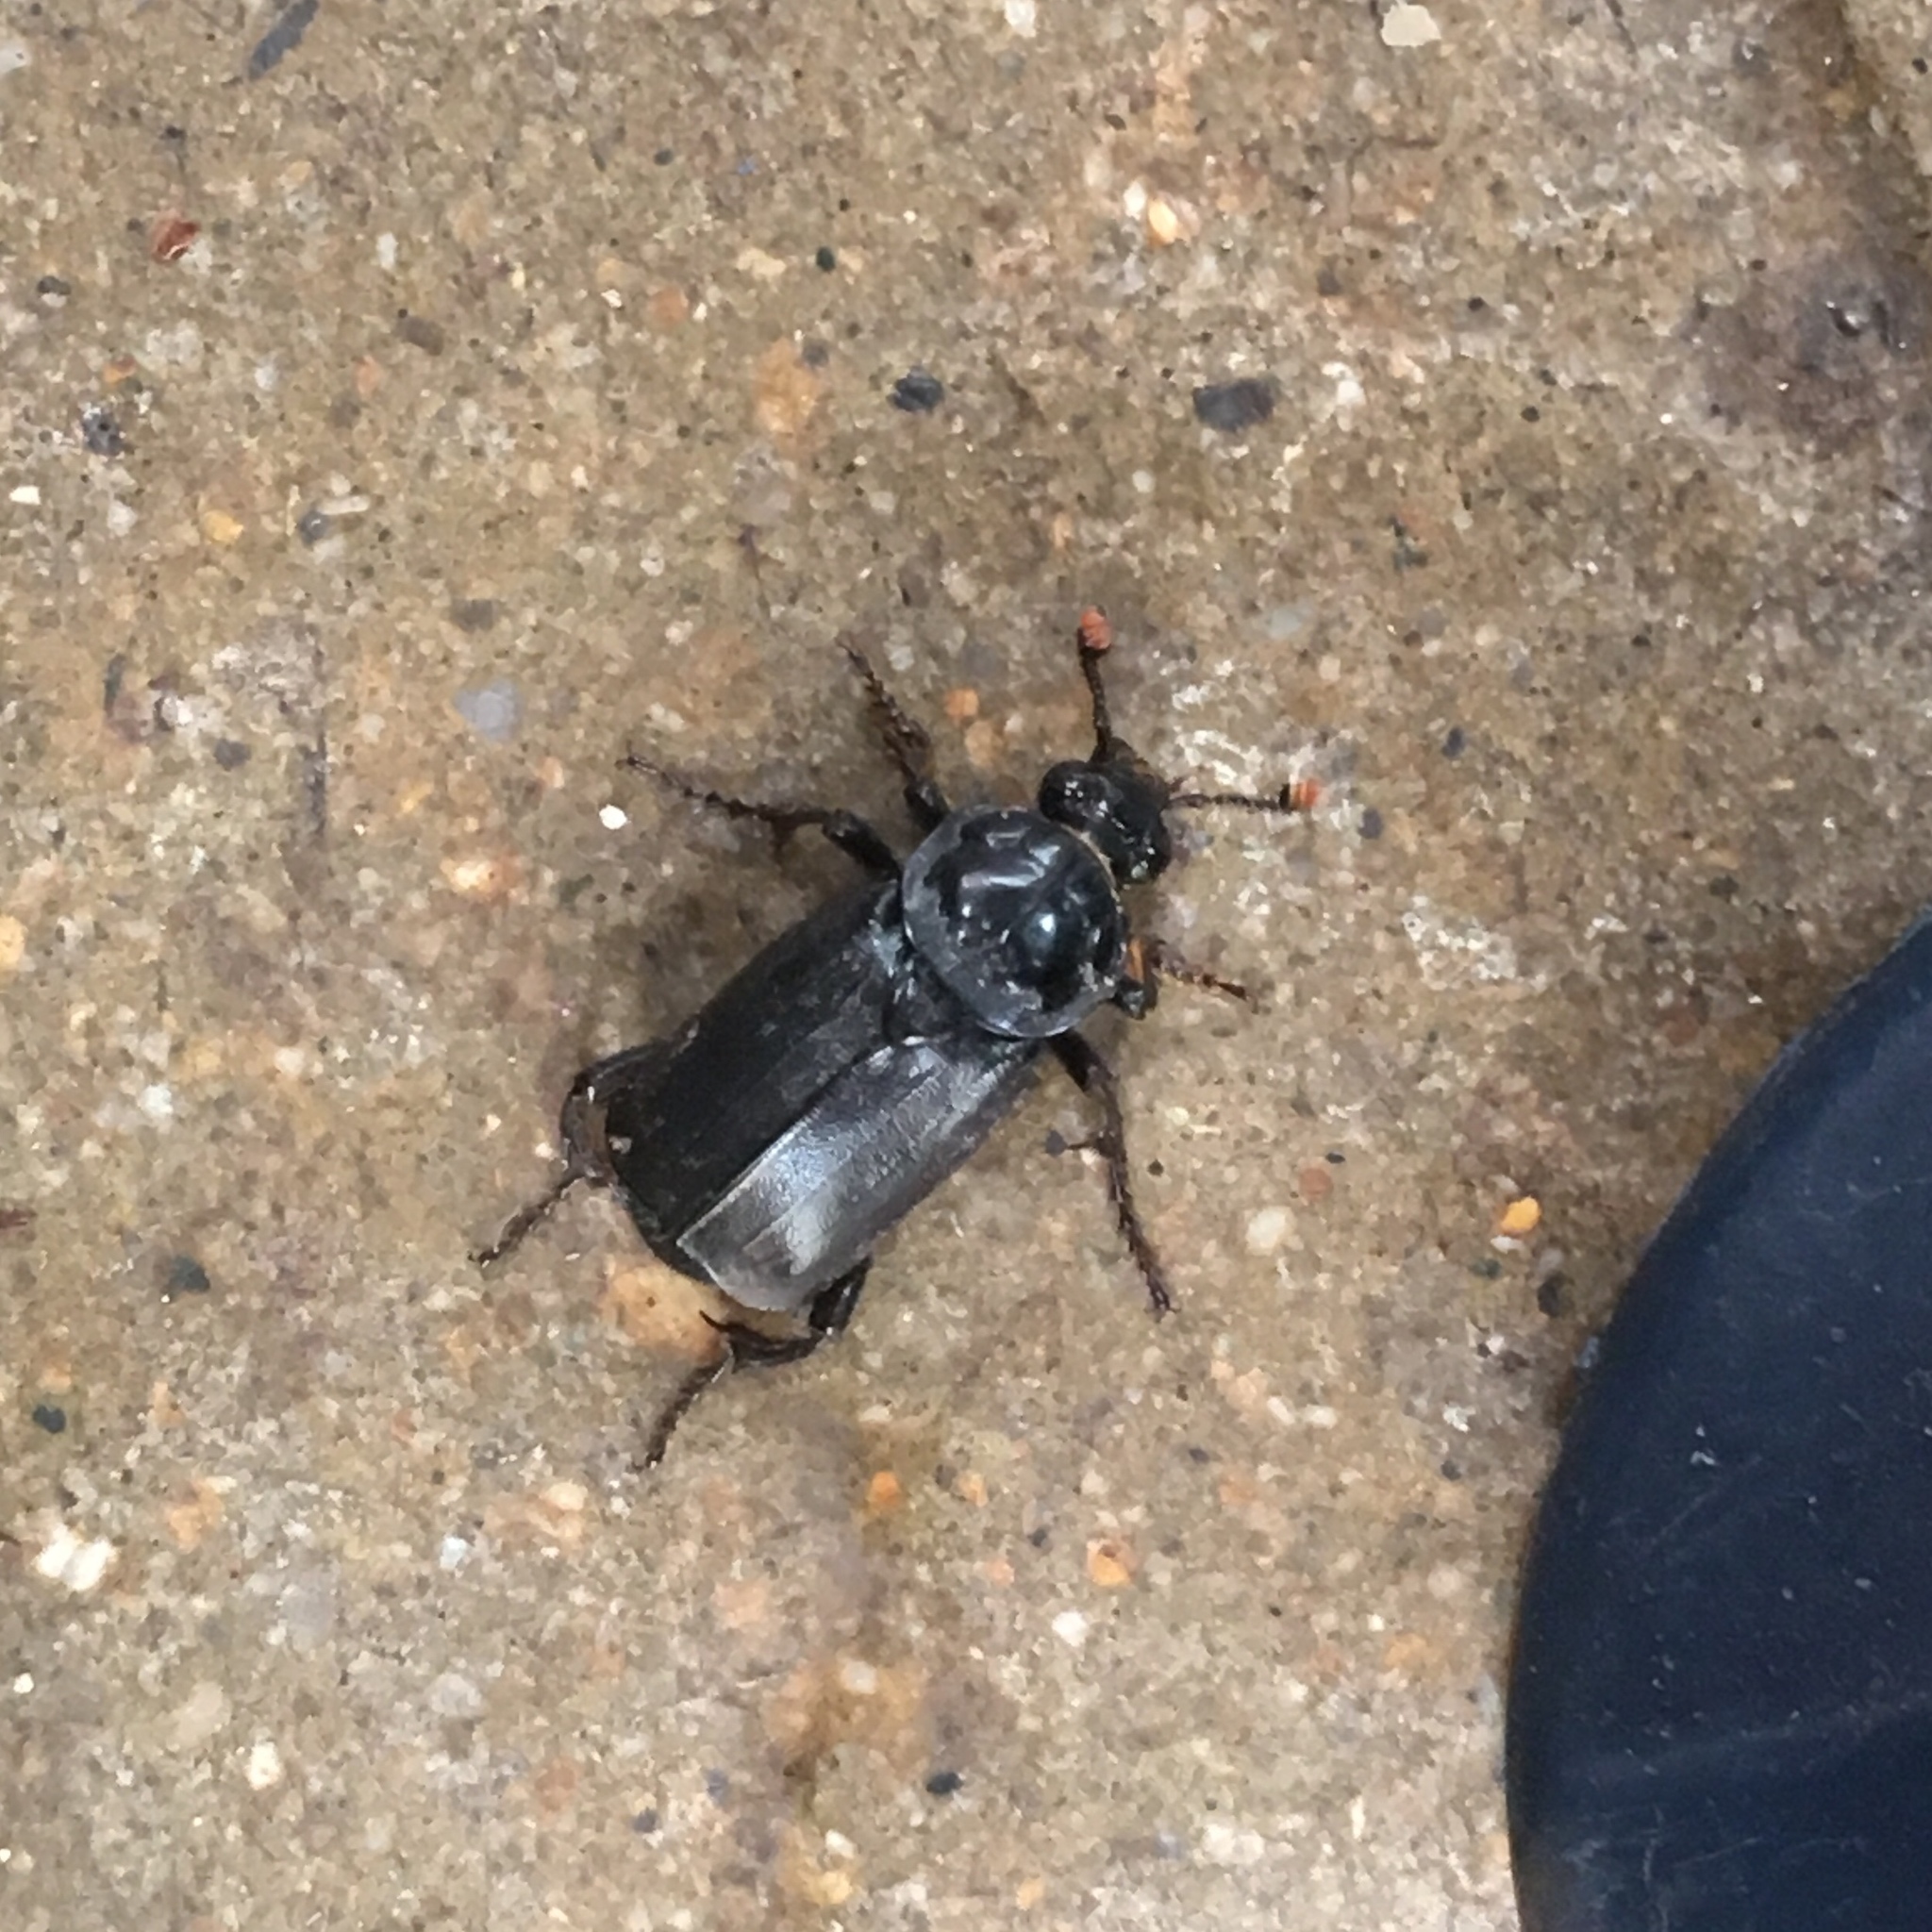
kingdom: Animalia
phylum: Arthropoda
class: Insecta
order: Coleoptera
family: Staphylinidae
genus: Nicrophorus
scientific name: Nicrophorus humator
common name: Black sexton beetle
